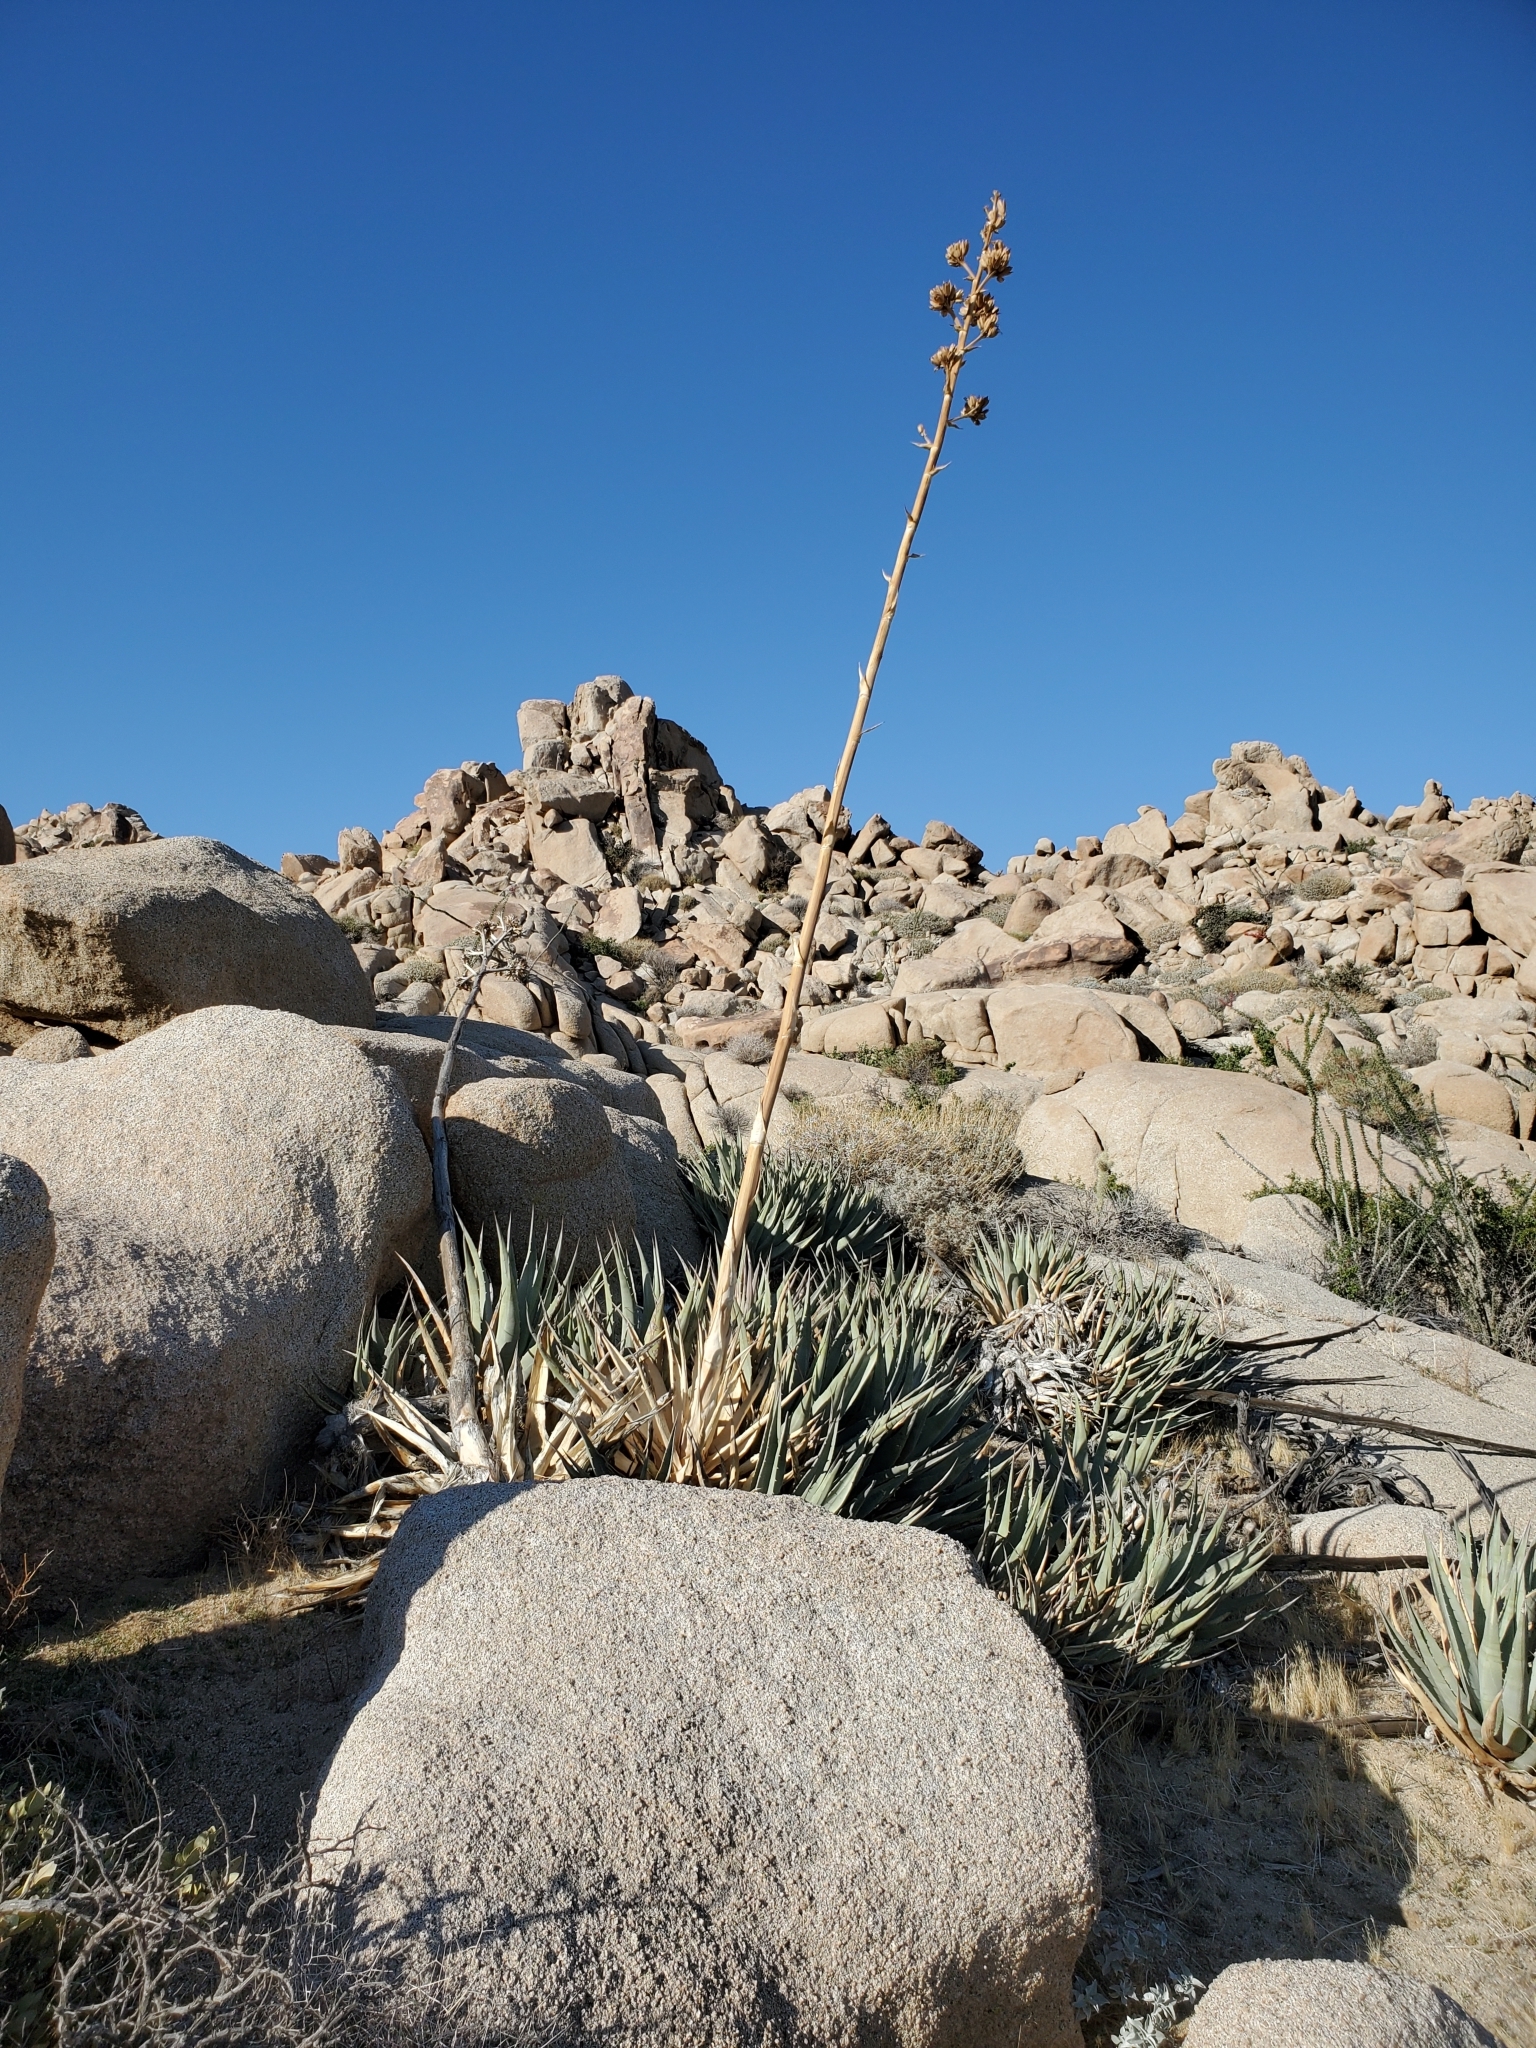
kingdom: Plantae
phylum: Tracheophyta
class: Liliopsida
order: Asparagales
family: Asparagaceae
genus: Agave
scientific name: Agave deserti
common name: Desert agave
